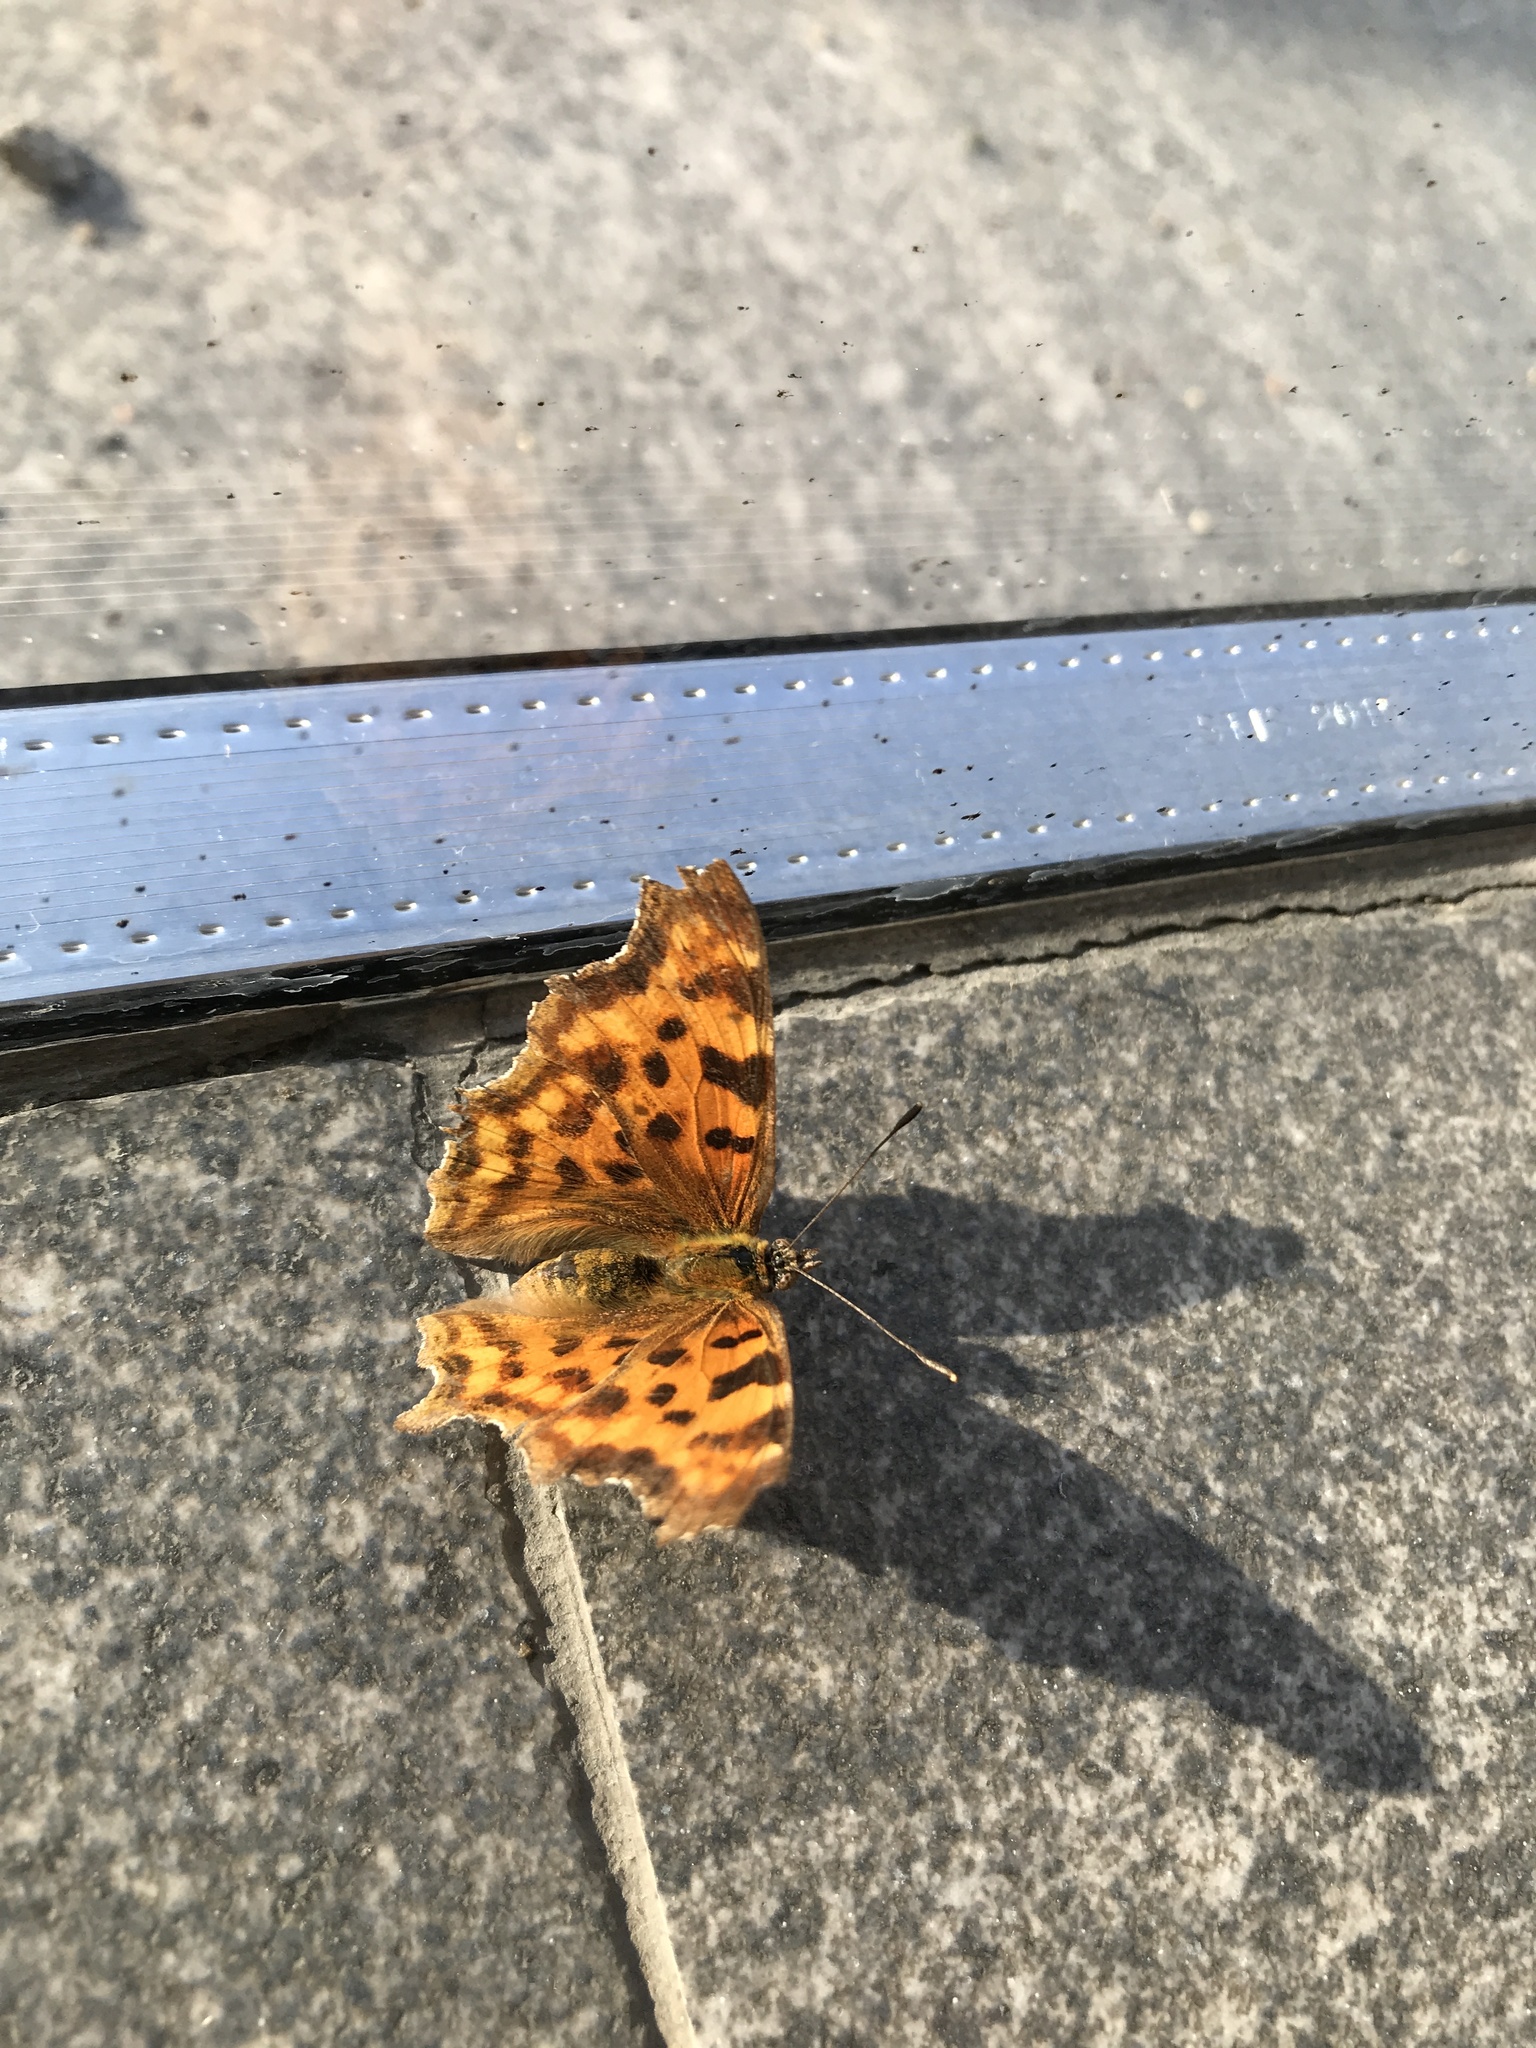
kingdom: Animalia
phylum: Arthropoda
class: Insecta
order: Lepidoptera
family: Nymphalidae
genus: Polygonia
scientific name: Polygonia c-album
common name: Comma
